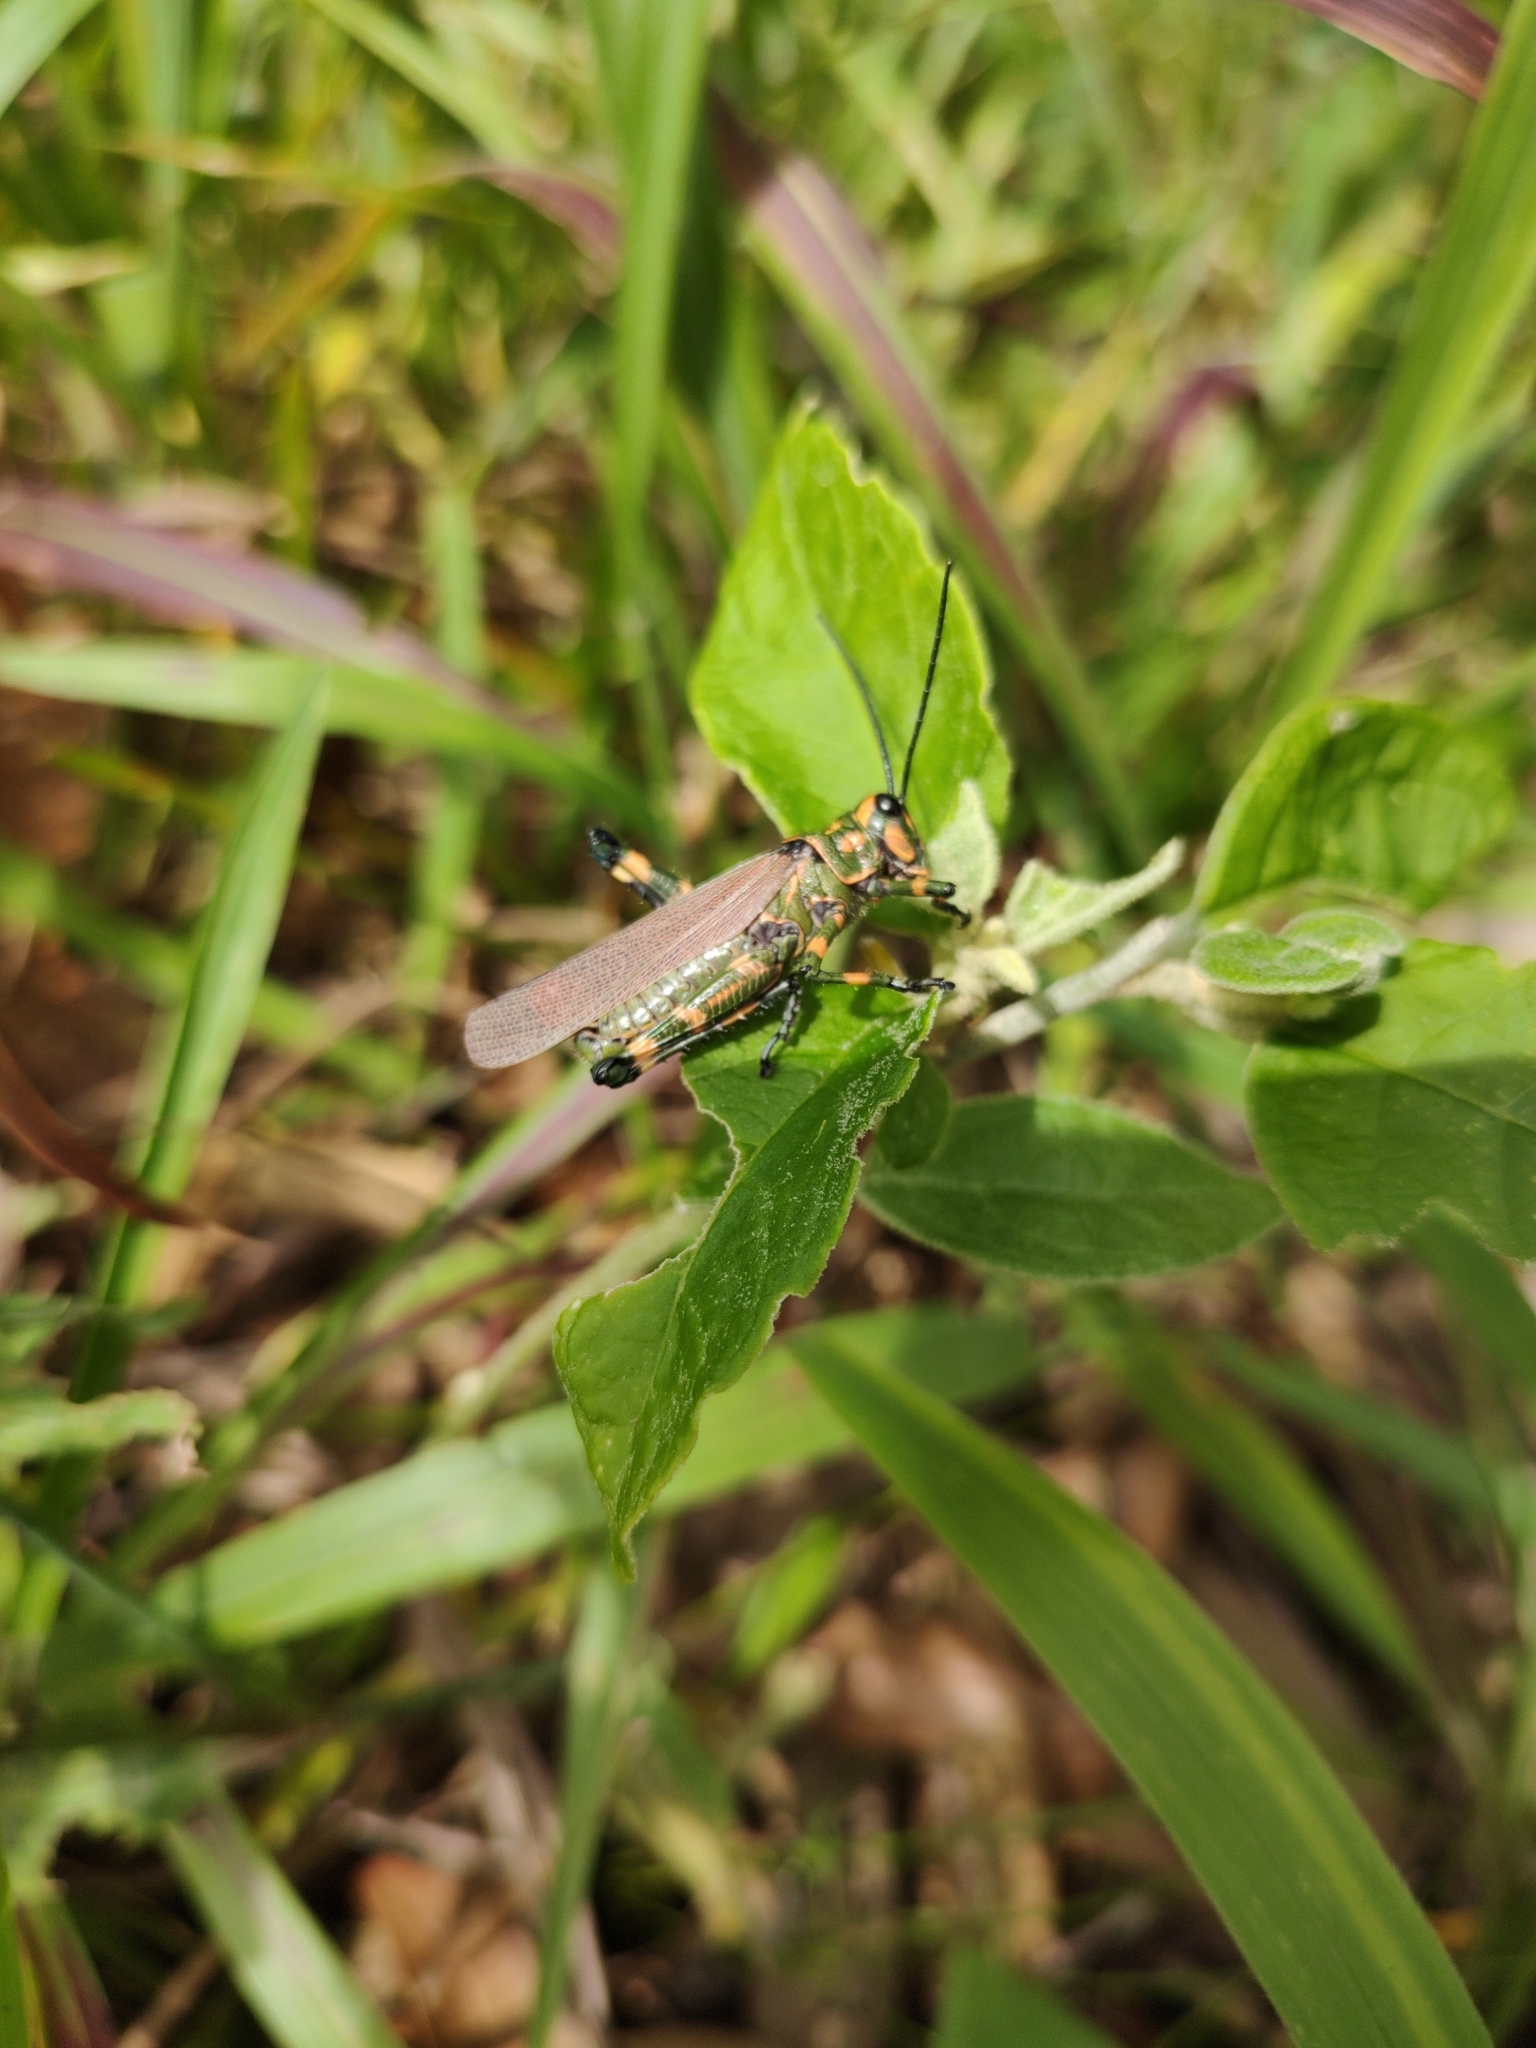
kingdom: Animalia
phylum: Arthropoda
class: Insecta
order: Orthoptera
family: Romaleidae
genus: Chromacris
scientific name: Chromacris speciosa
